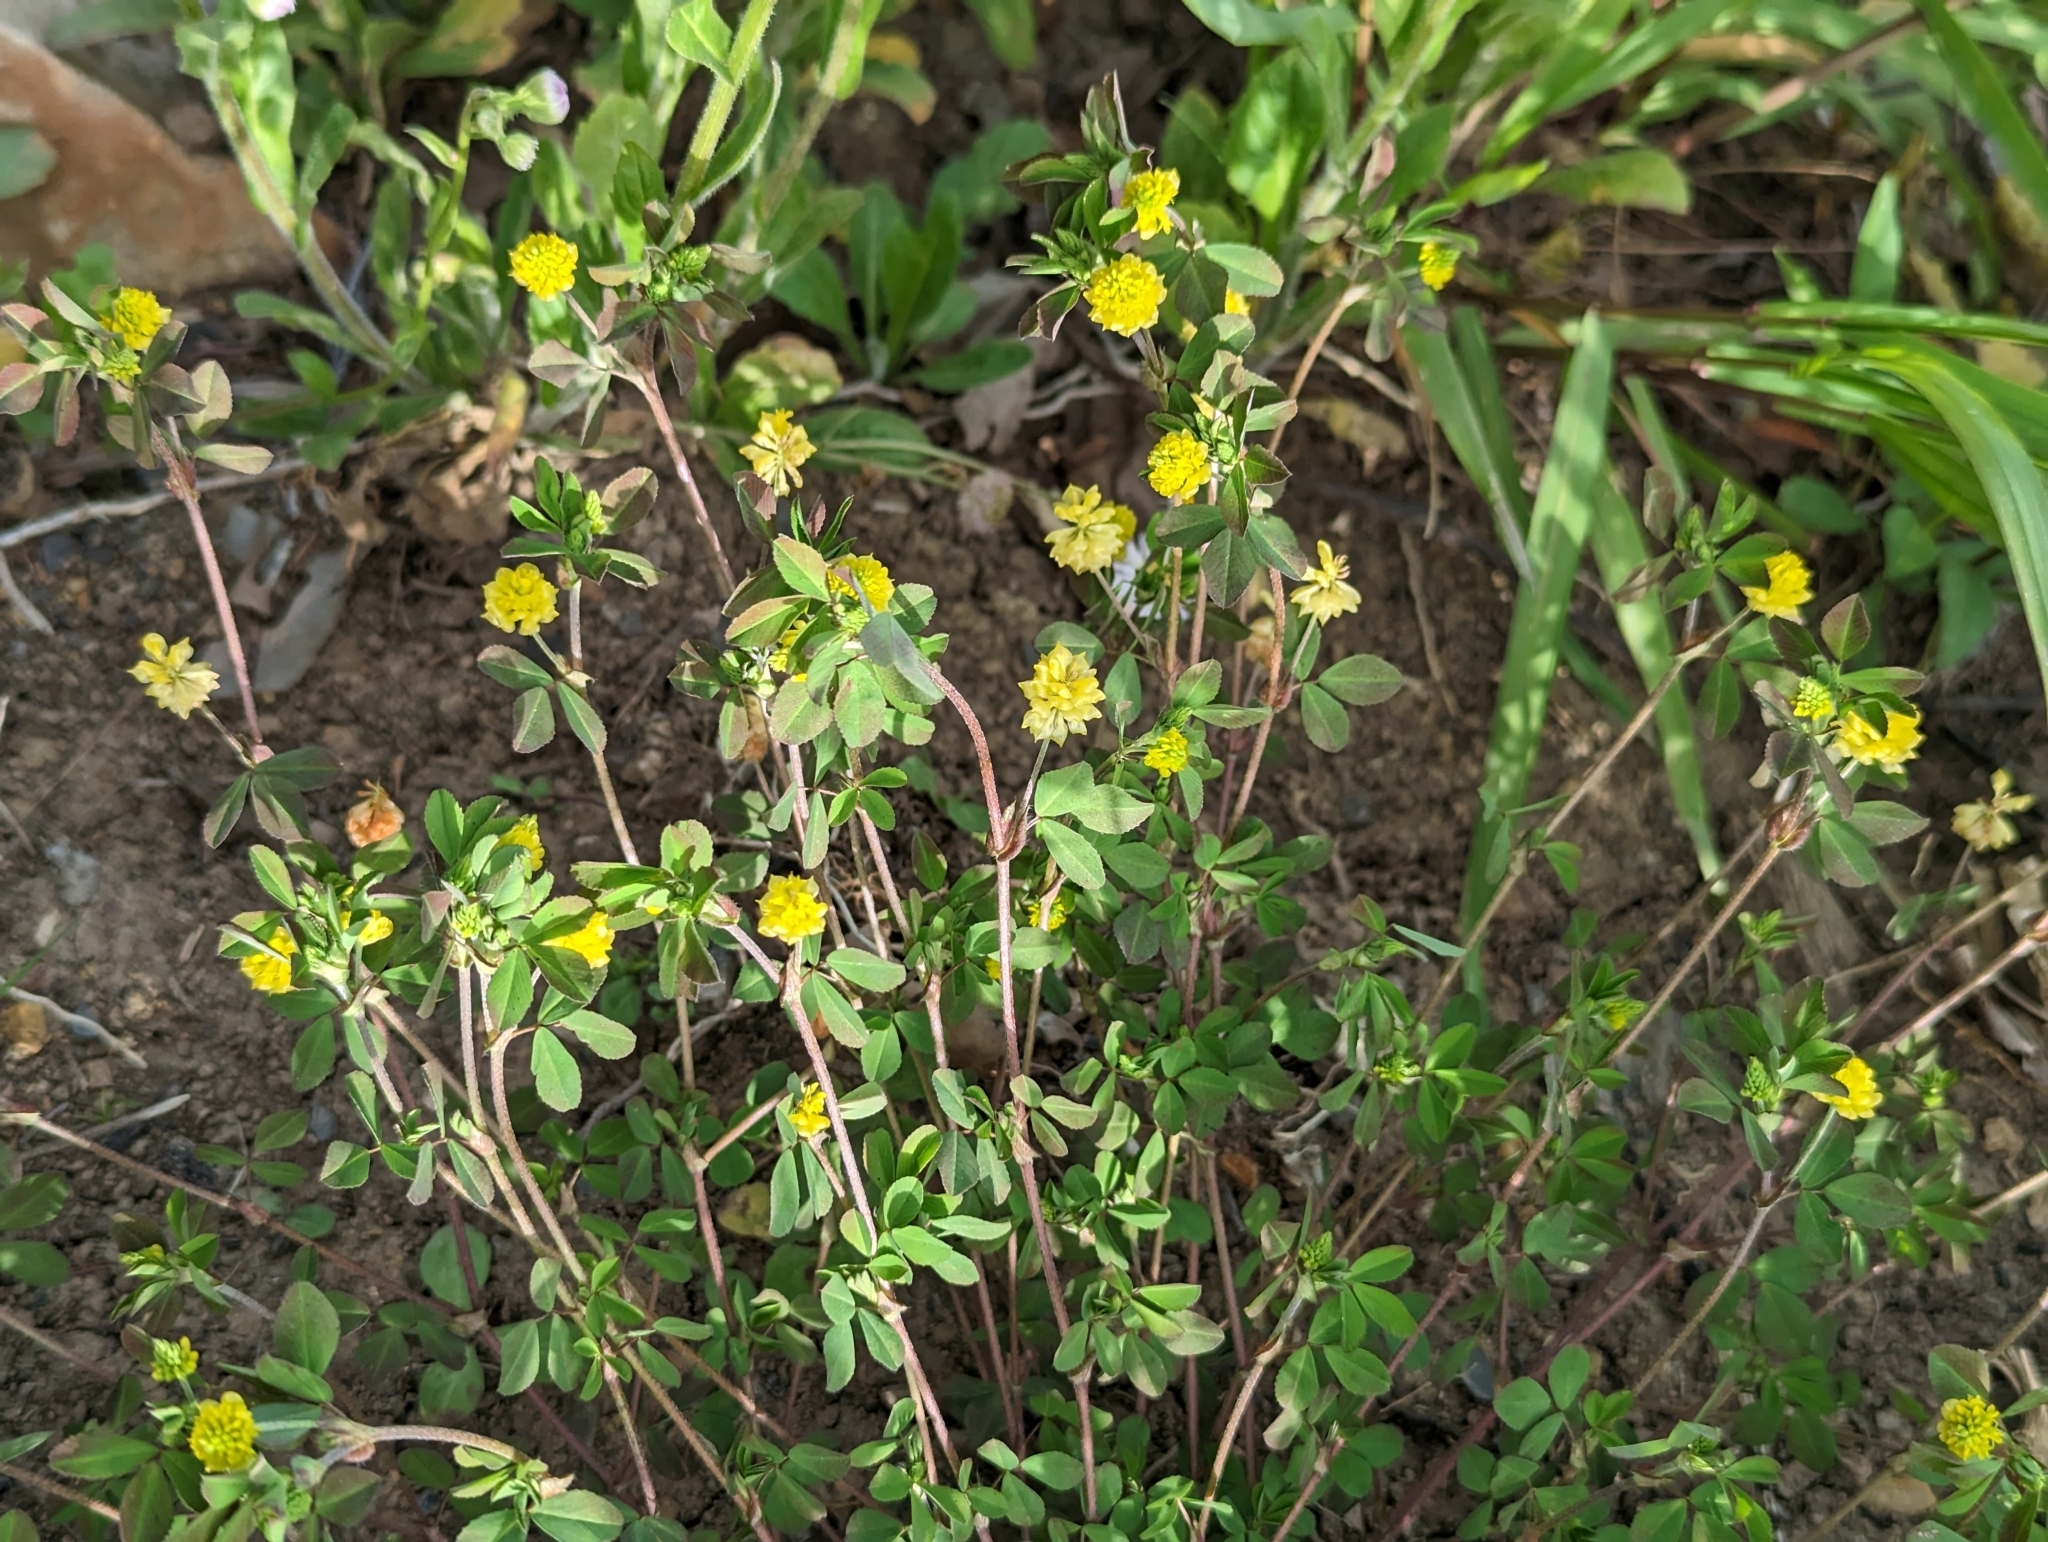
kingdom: Plantae
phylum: Tracheophyta
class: Magnoliopsida
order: Fabales
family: Fabaceae
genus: Trifolium
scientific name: Trifolium campestre
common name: Field clover
